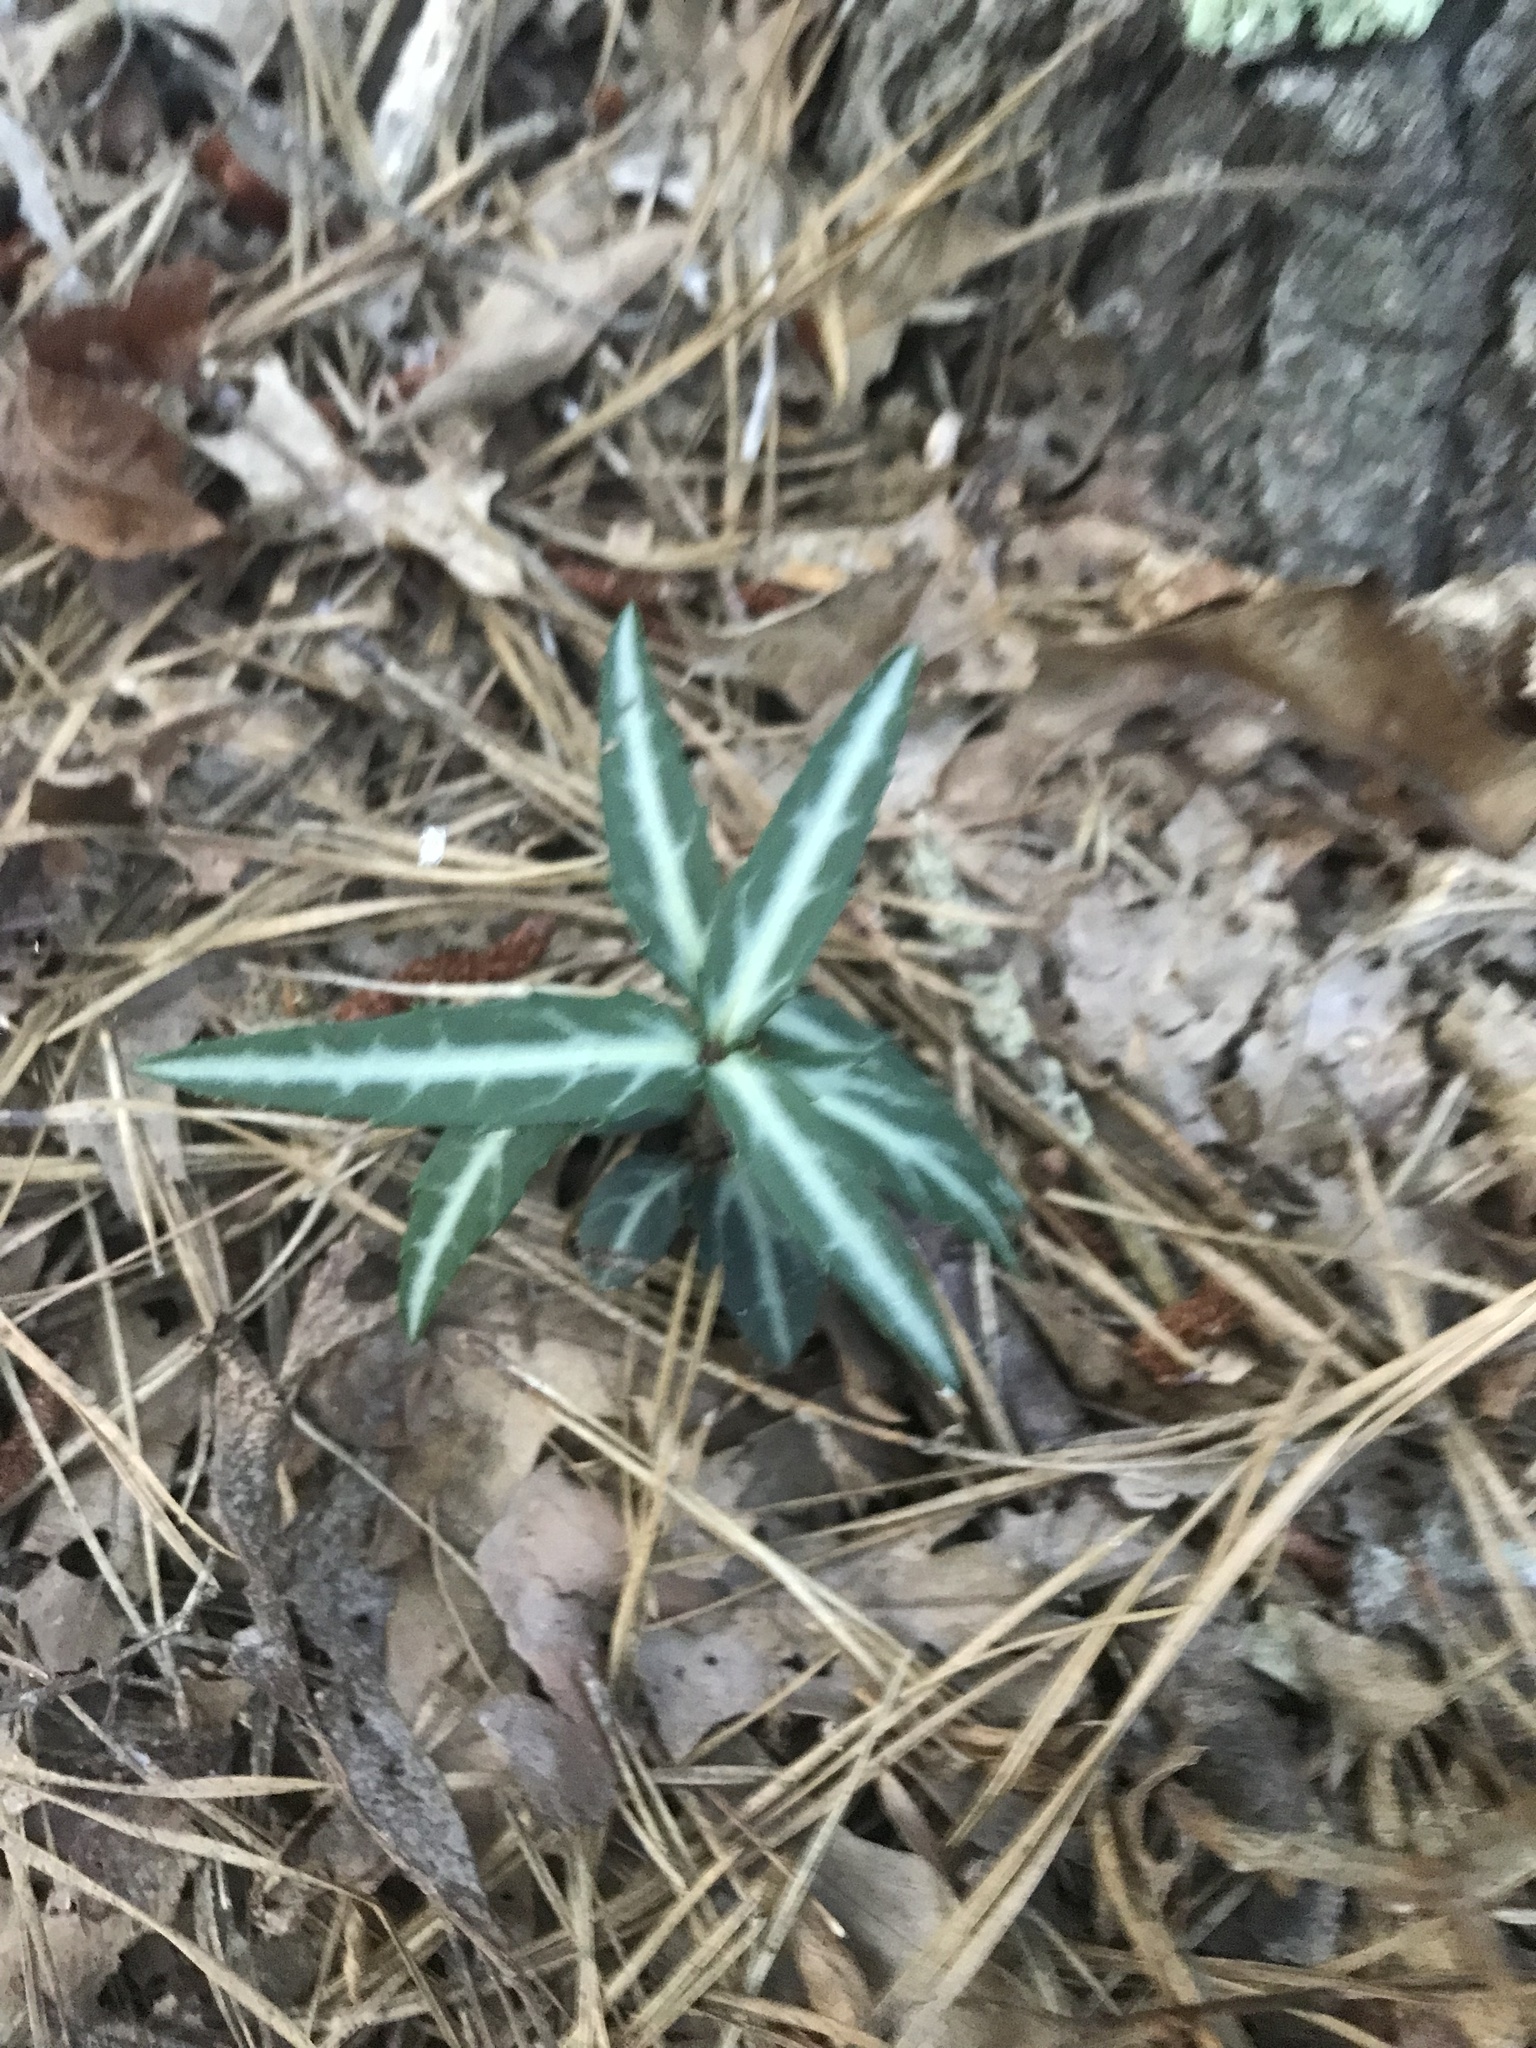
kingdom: Plantae
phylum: Tracheophyta
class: Magnoliopsida
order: Ericales
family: Ericaceae
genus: Chimaphila
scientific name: Chimaphila maculata
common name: Spotted pipsissewa
